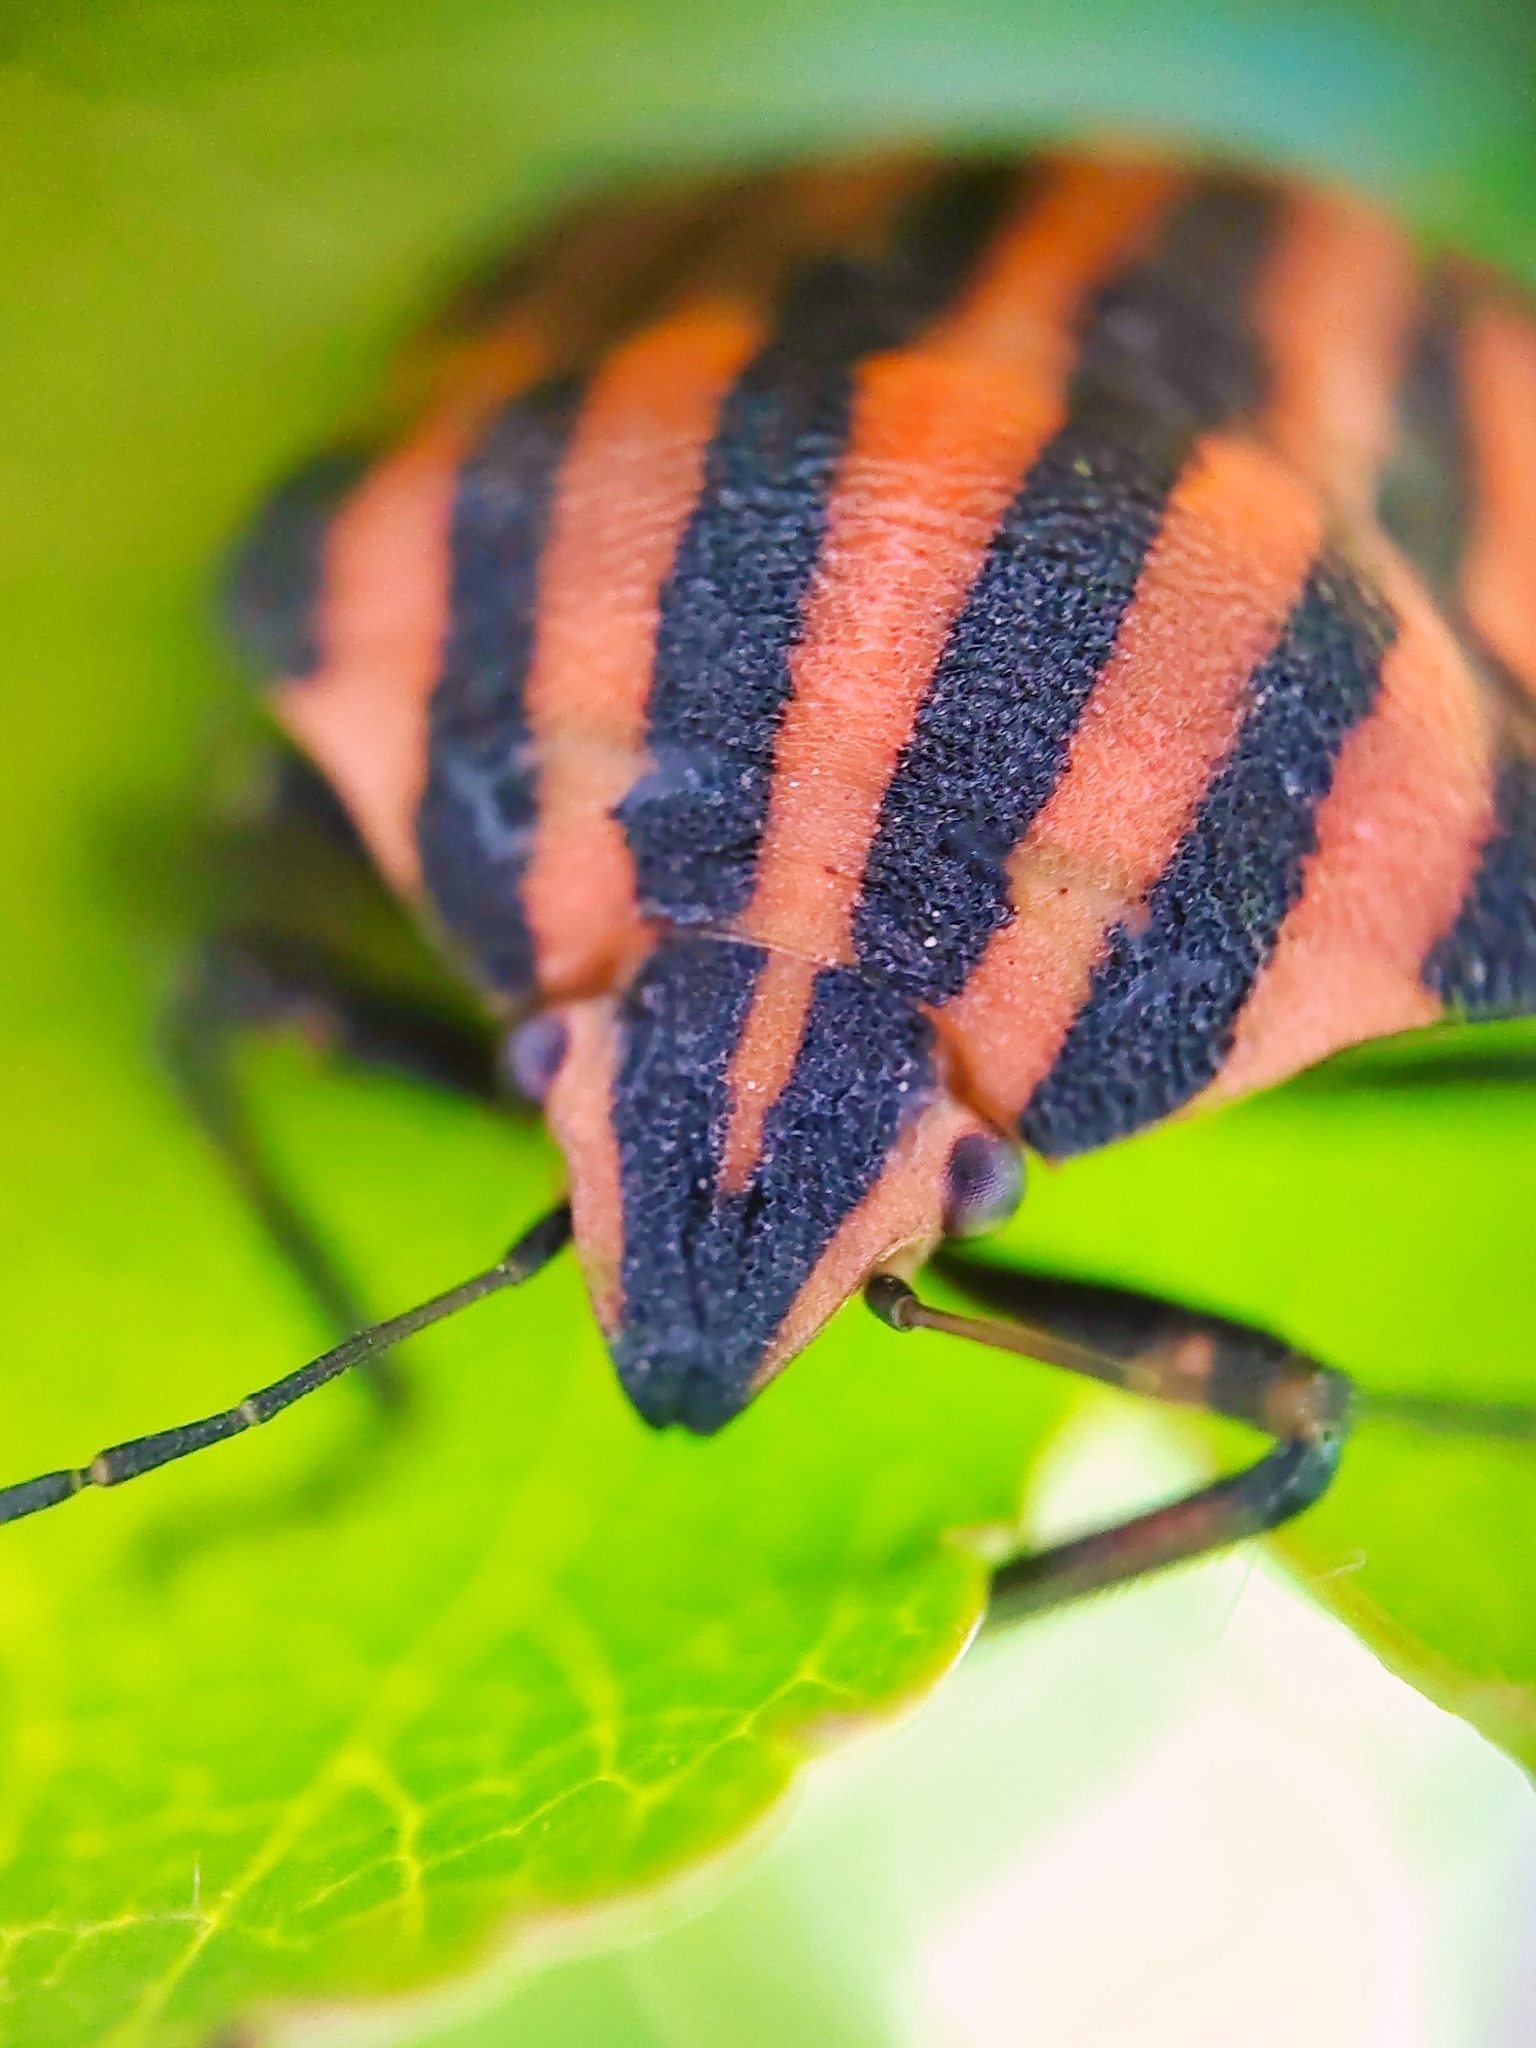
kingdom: Animalia
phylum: Arthropoda
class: Insecta
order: Hemiptera
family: Pentatomidae
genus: Graphosoma
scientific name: Graphosoma italicum
